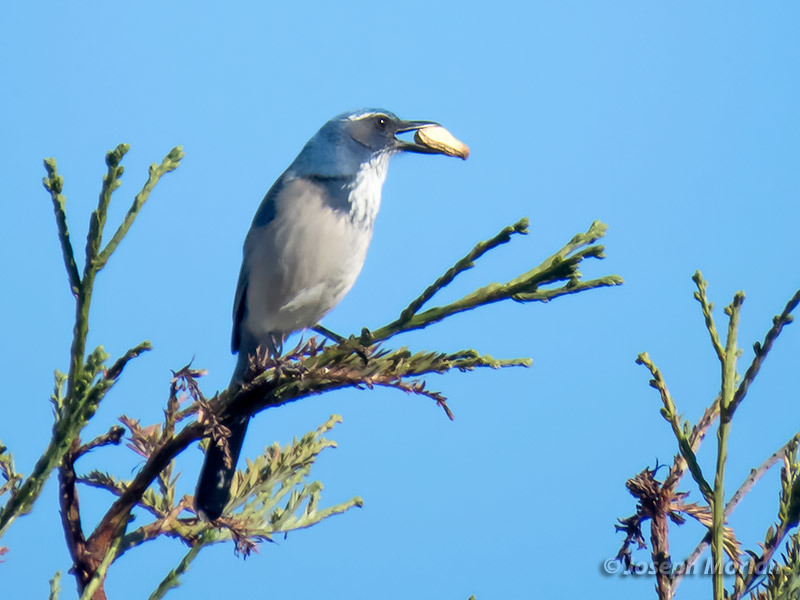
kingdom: Animalia
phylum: Chordata
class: Aves
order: Passeriformes
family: Corvidae
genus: Aphelocoma
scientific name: Aphelocoma californica
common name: California scrub-jay
